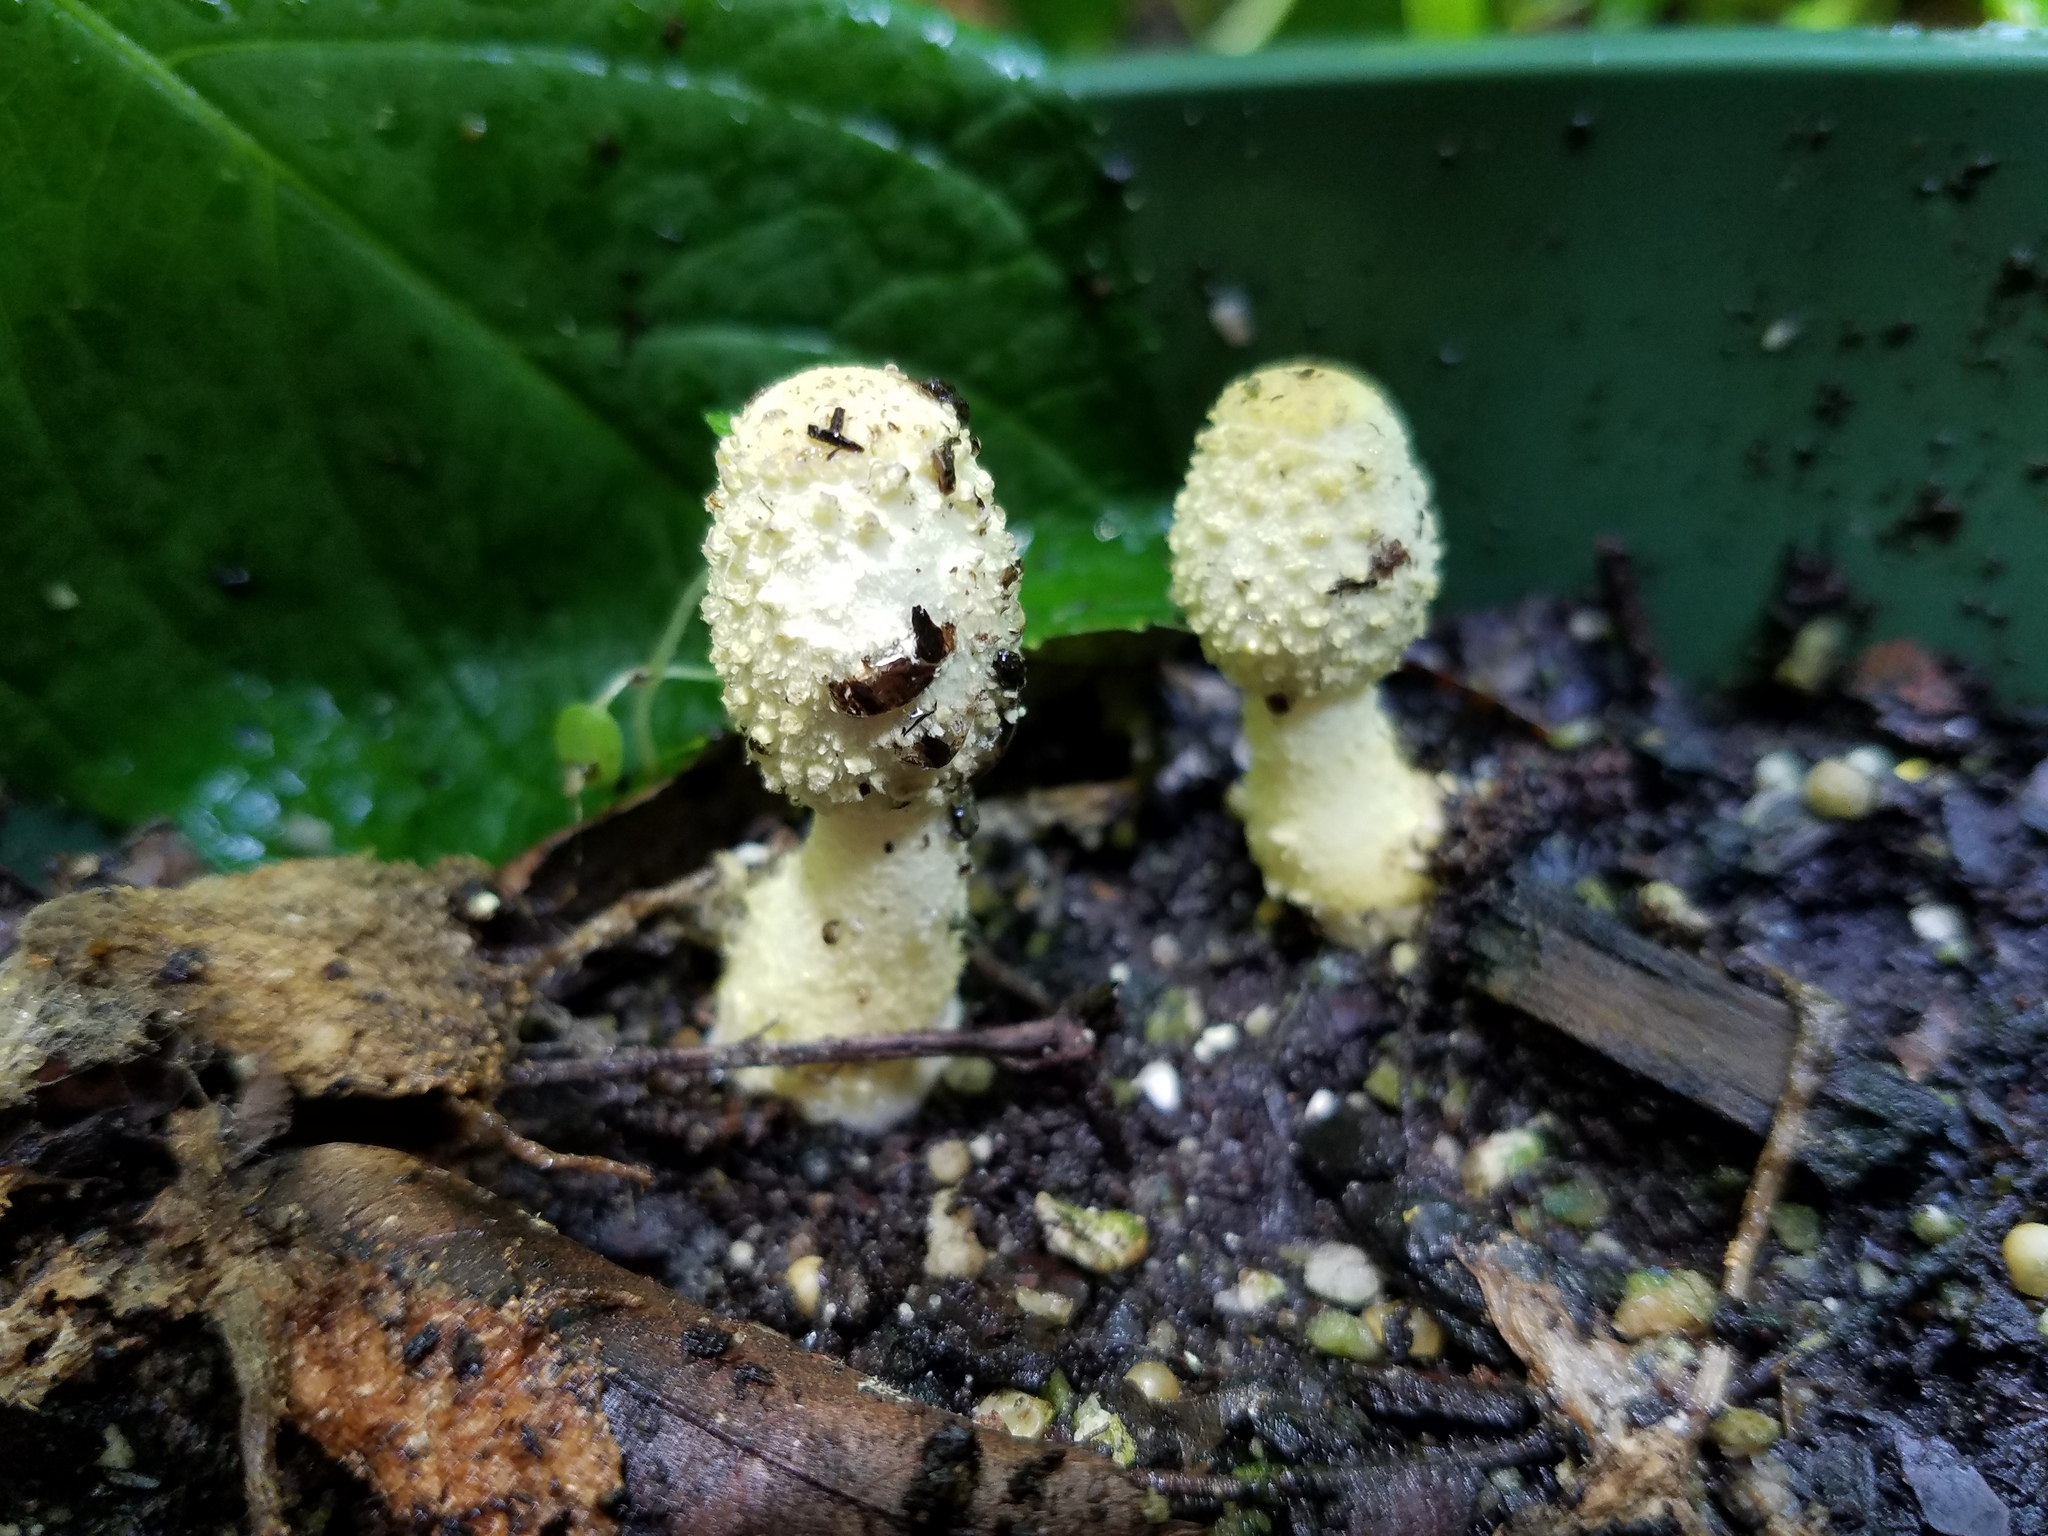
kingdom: Fungi
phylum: Basidiomycota
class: Agaricomycetes
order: Agaricales
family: Agaricaceae
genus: Leucocoprinus
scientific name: Leucocoprinus birnbaumii
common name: Plantpot dapperling
